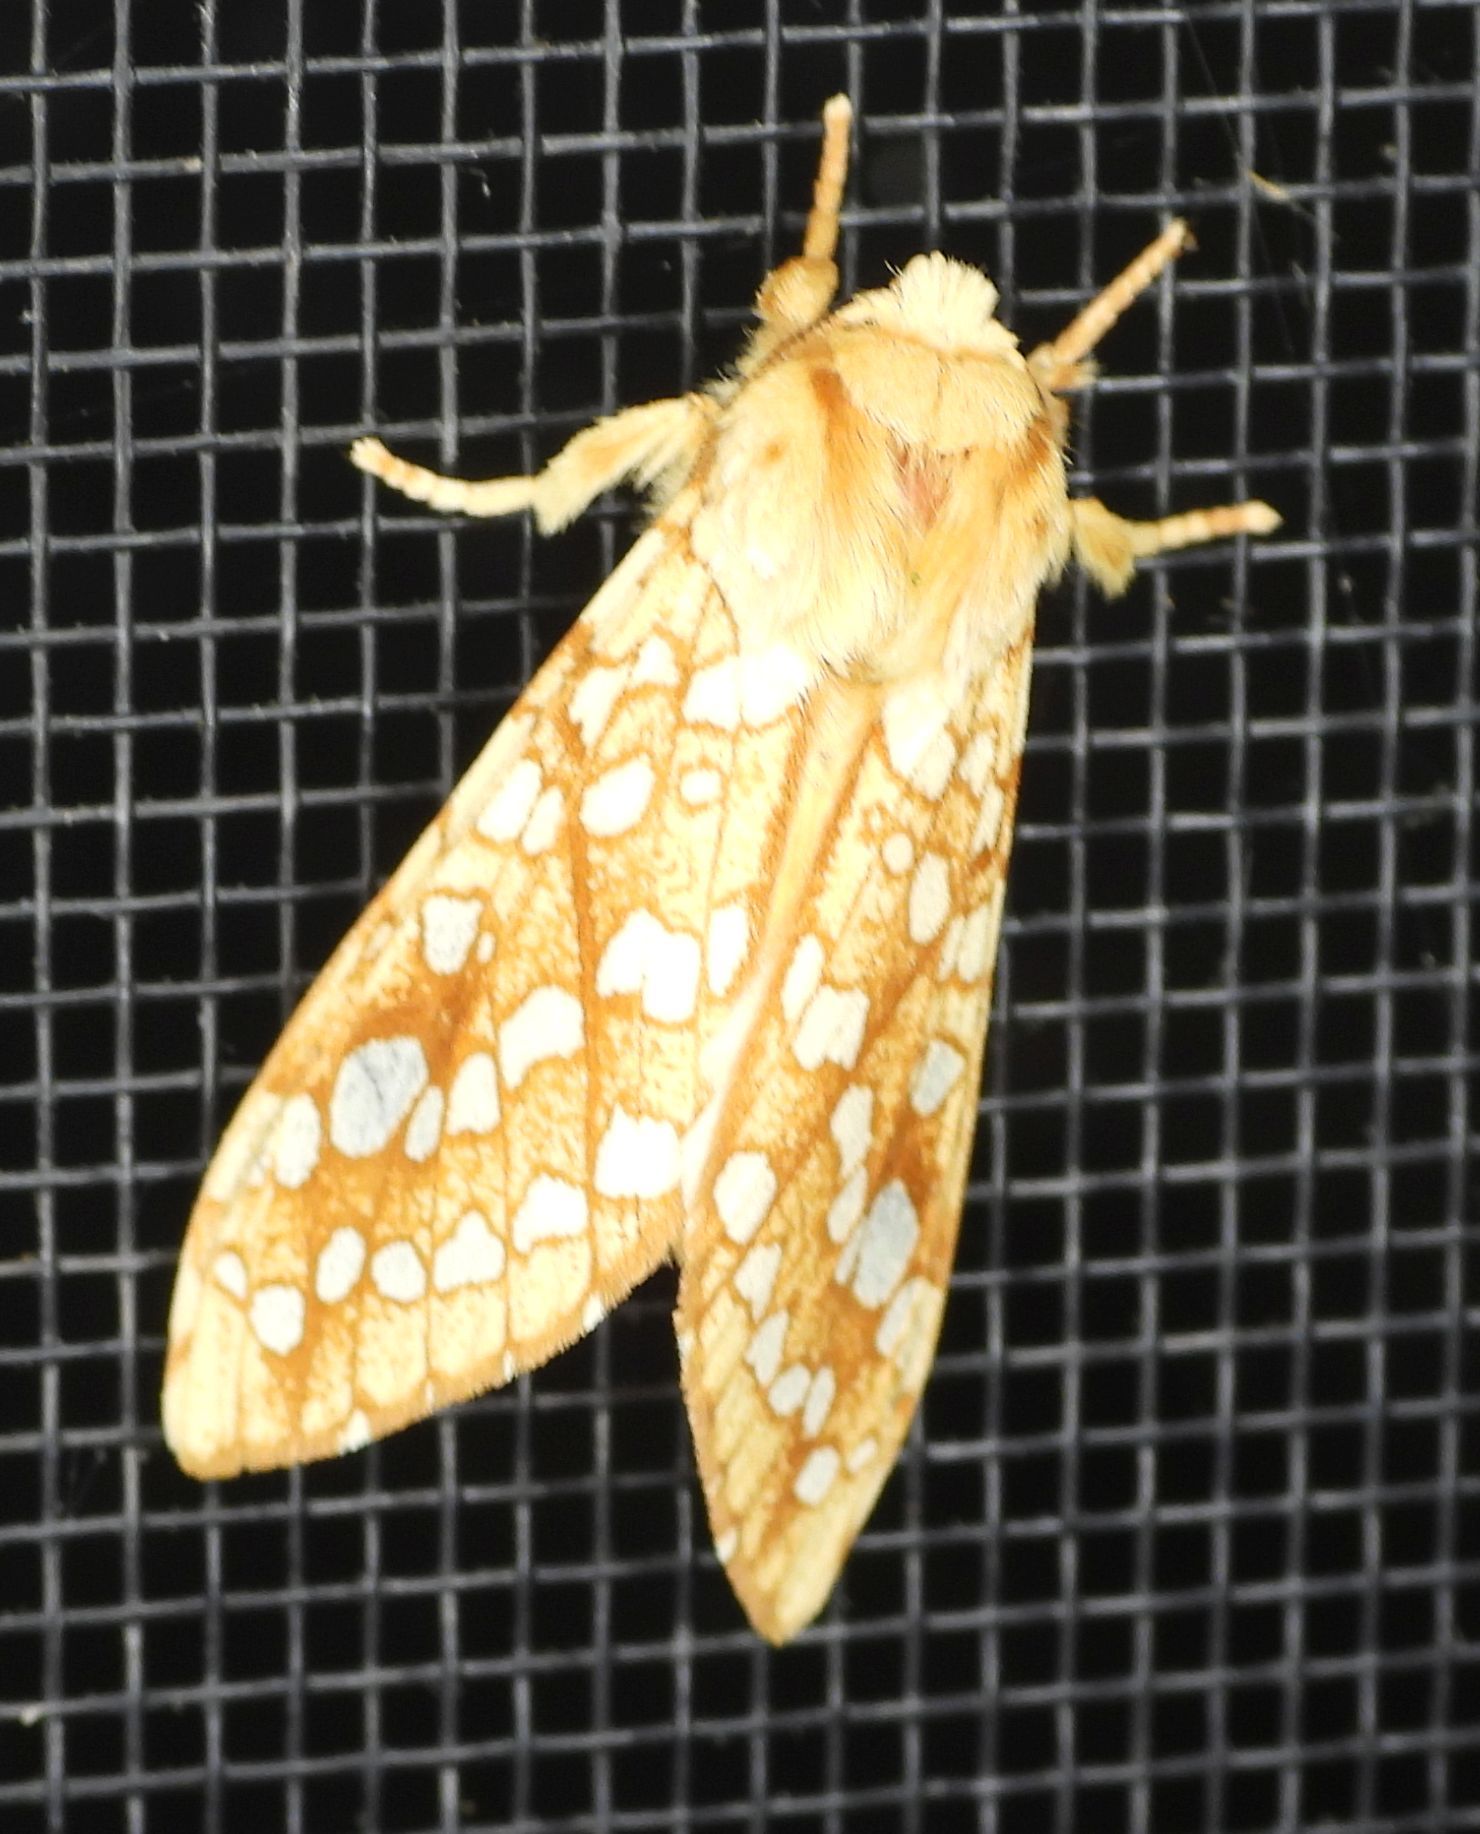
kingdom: Animalia
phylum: Arthropoda
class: Insecta
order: Lepidoptera
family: Erebidae
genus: Lophocampa
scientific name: Lophocampa caryae
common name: Hickory tussock moth
